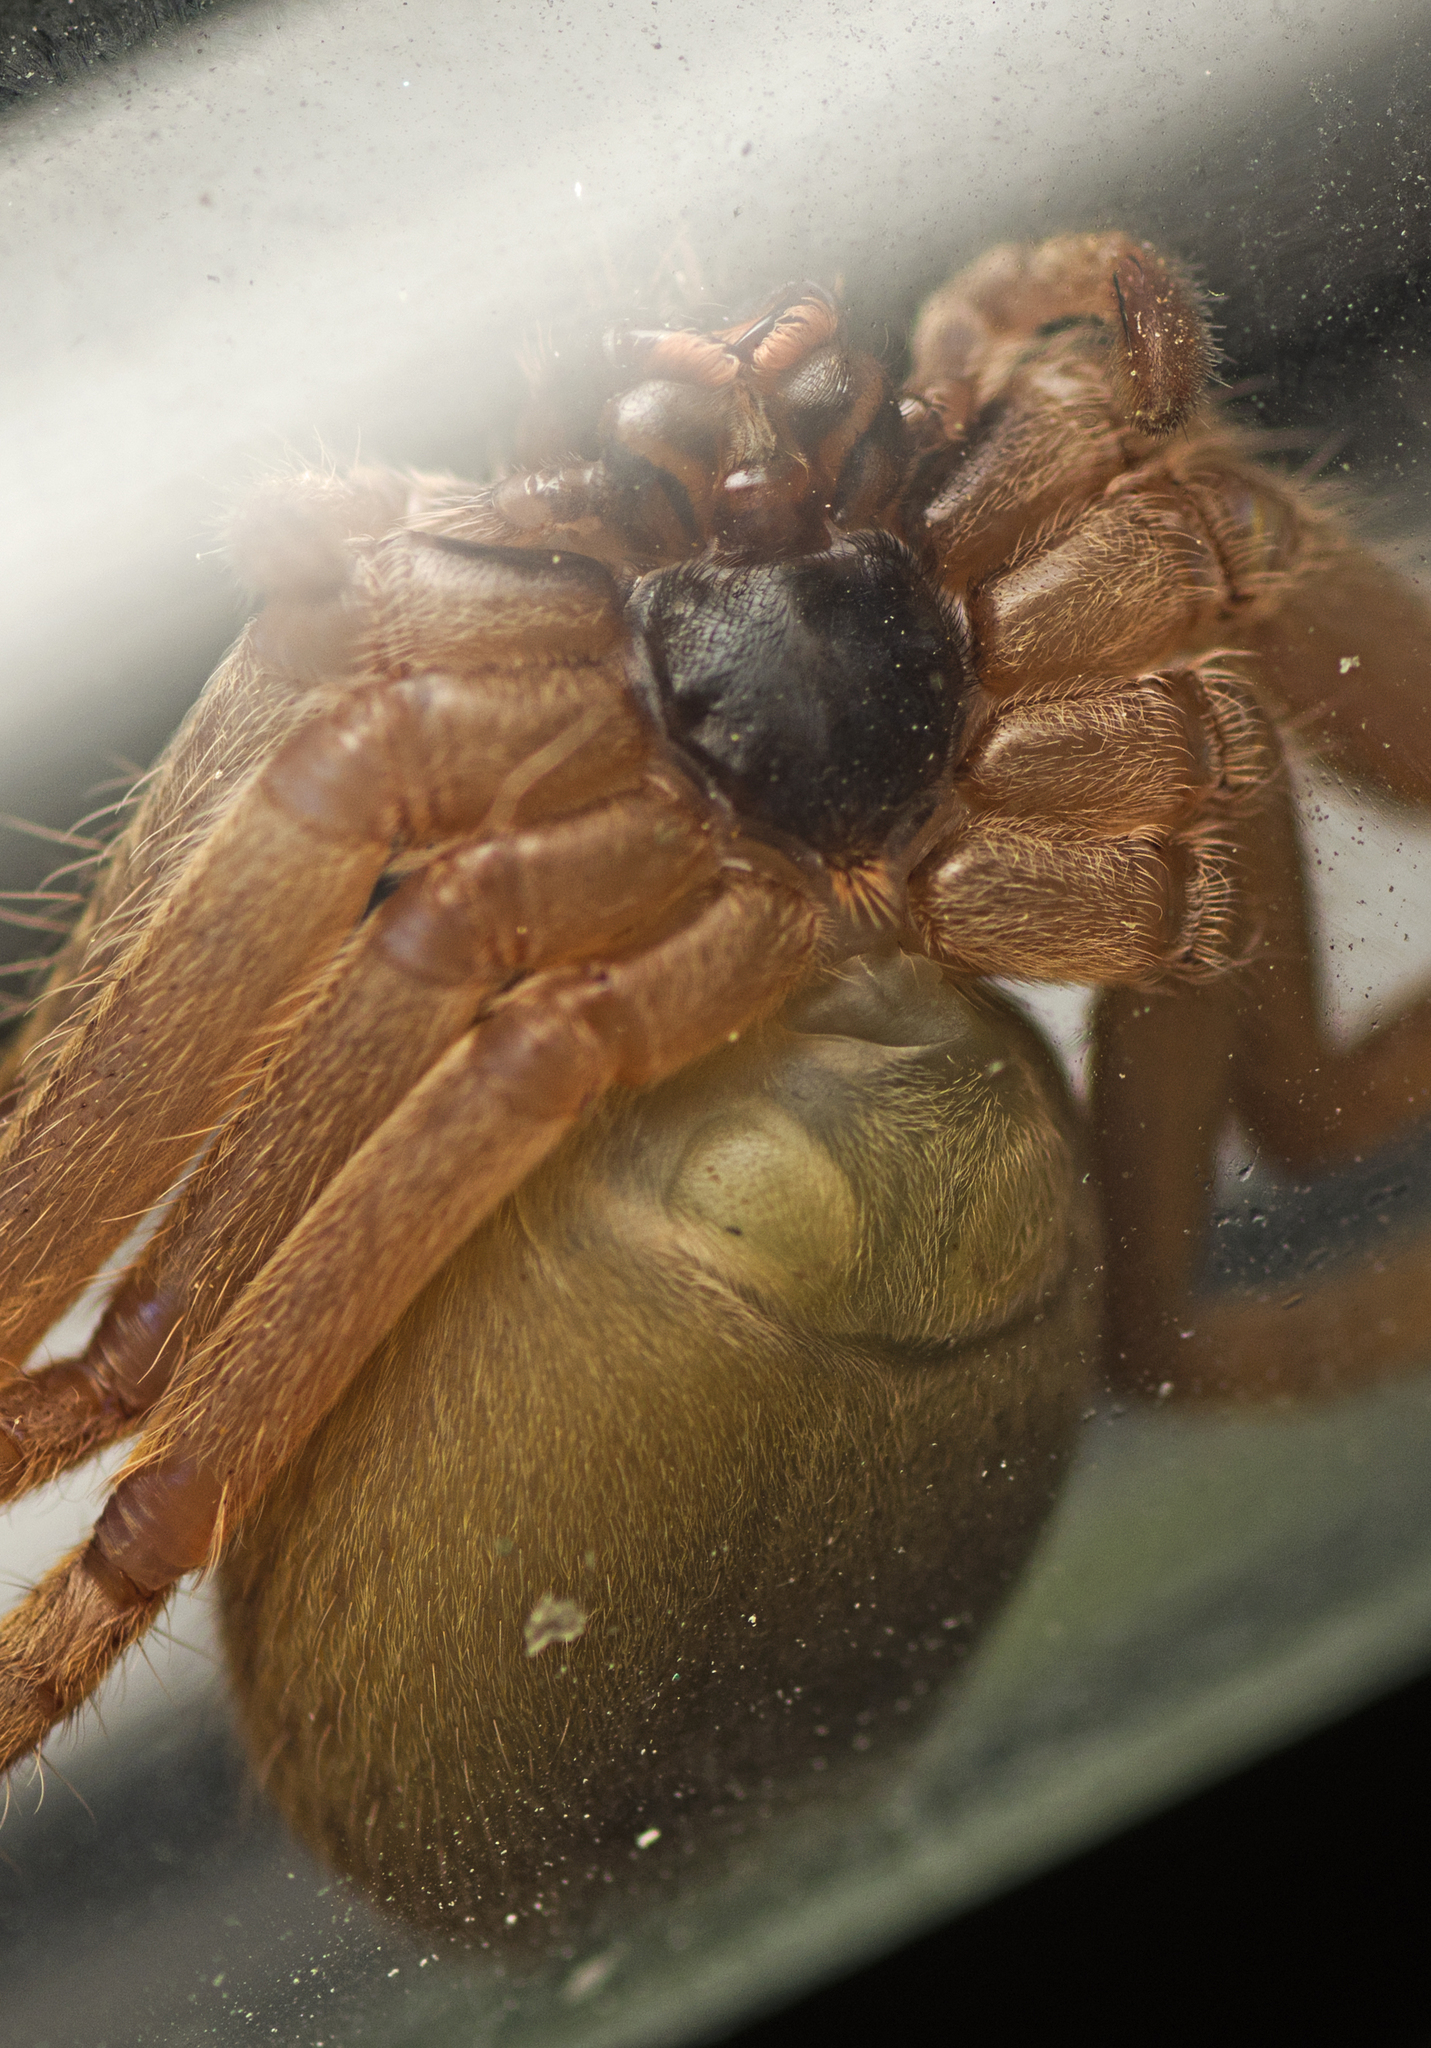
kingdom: Animalia
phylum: Arthropoda
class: Arachnida
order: Araneae
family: Sparassidae
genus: Isopeda
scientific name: Isopeda queenslandensis
